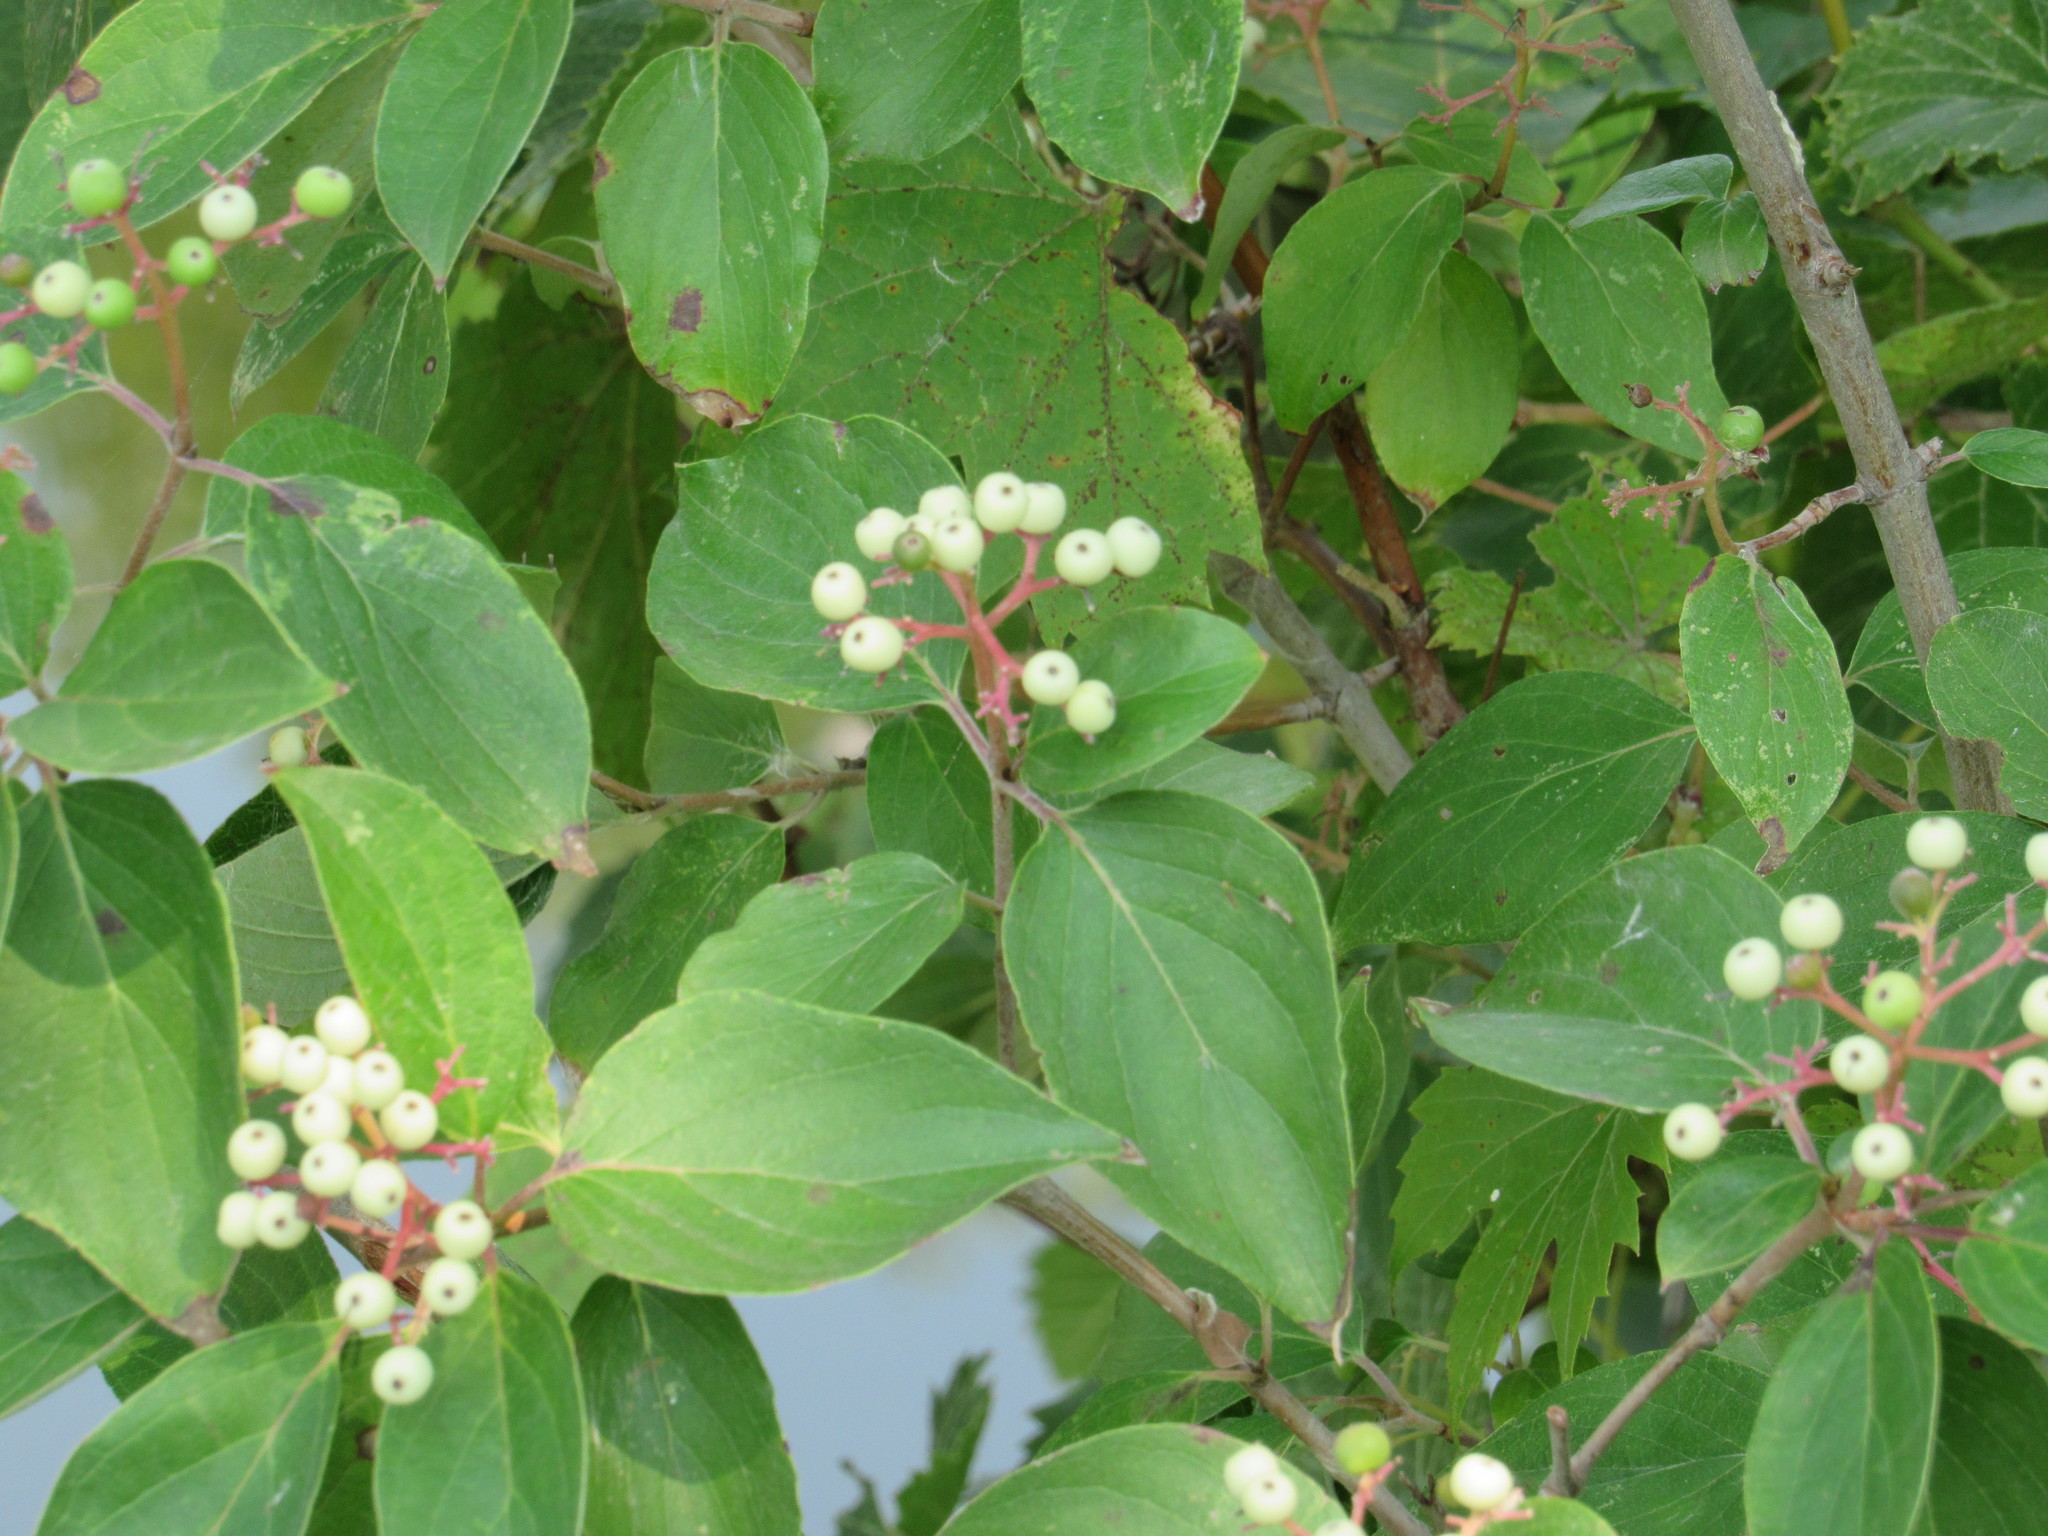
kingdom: Plantae
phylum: Tracheophyta
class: Magnoliopsida
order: Cornales
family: Cornaceae
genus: Cornus
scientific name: Cornus drummondii
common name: Rough-leaf dogwood
